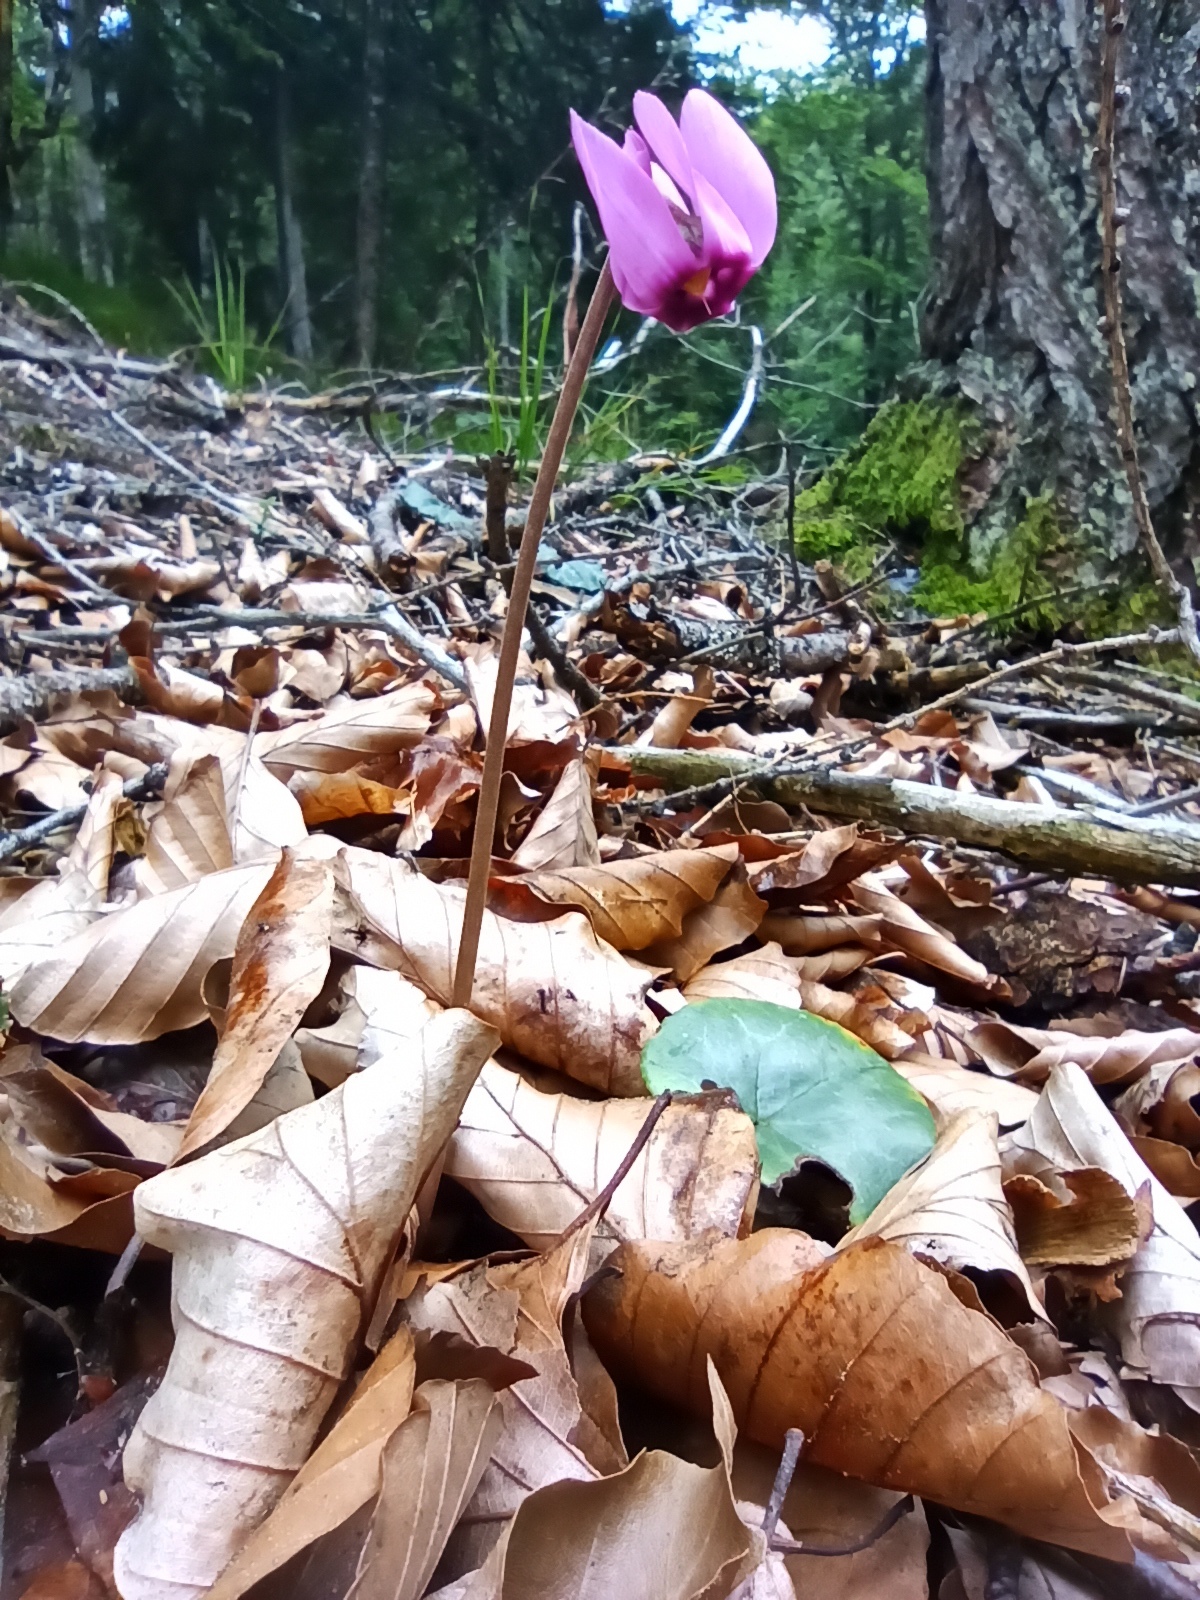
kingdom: Plantae
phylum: Tracheophyta
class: Magnoliopsida
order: Ericales
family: Primulaceae
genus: Cyclamen
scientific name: Cyclamen purpurascens
